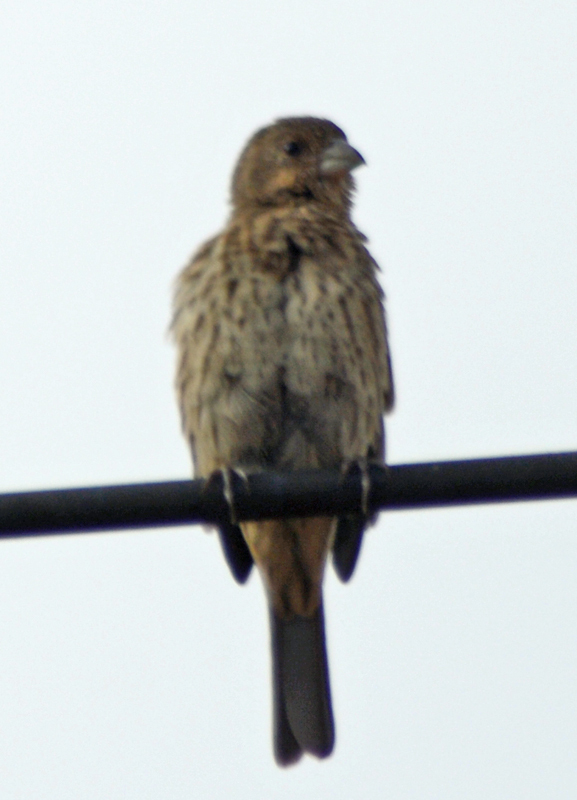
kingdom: Animalia
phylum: Chordata
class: Aves
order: Passeriformes
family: Fringillidae
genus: Haemorhous
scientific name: Haemorhous mexicanus
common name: House finch
